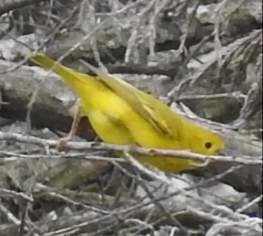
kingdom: Animalia
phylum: Chordata
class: Aves
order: Passeriformes
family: Parulidae
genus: Setophaga
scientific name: Setophaga petechia
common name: Yellow warbler
